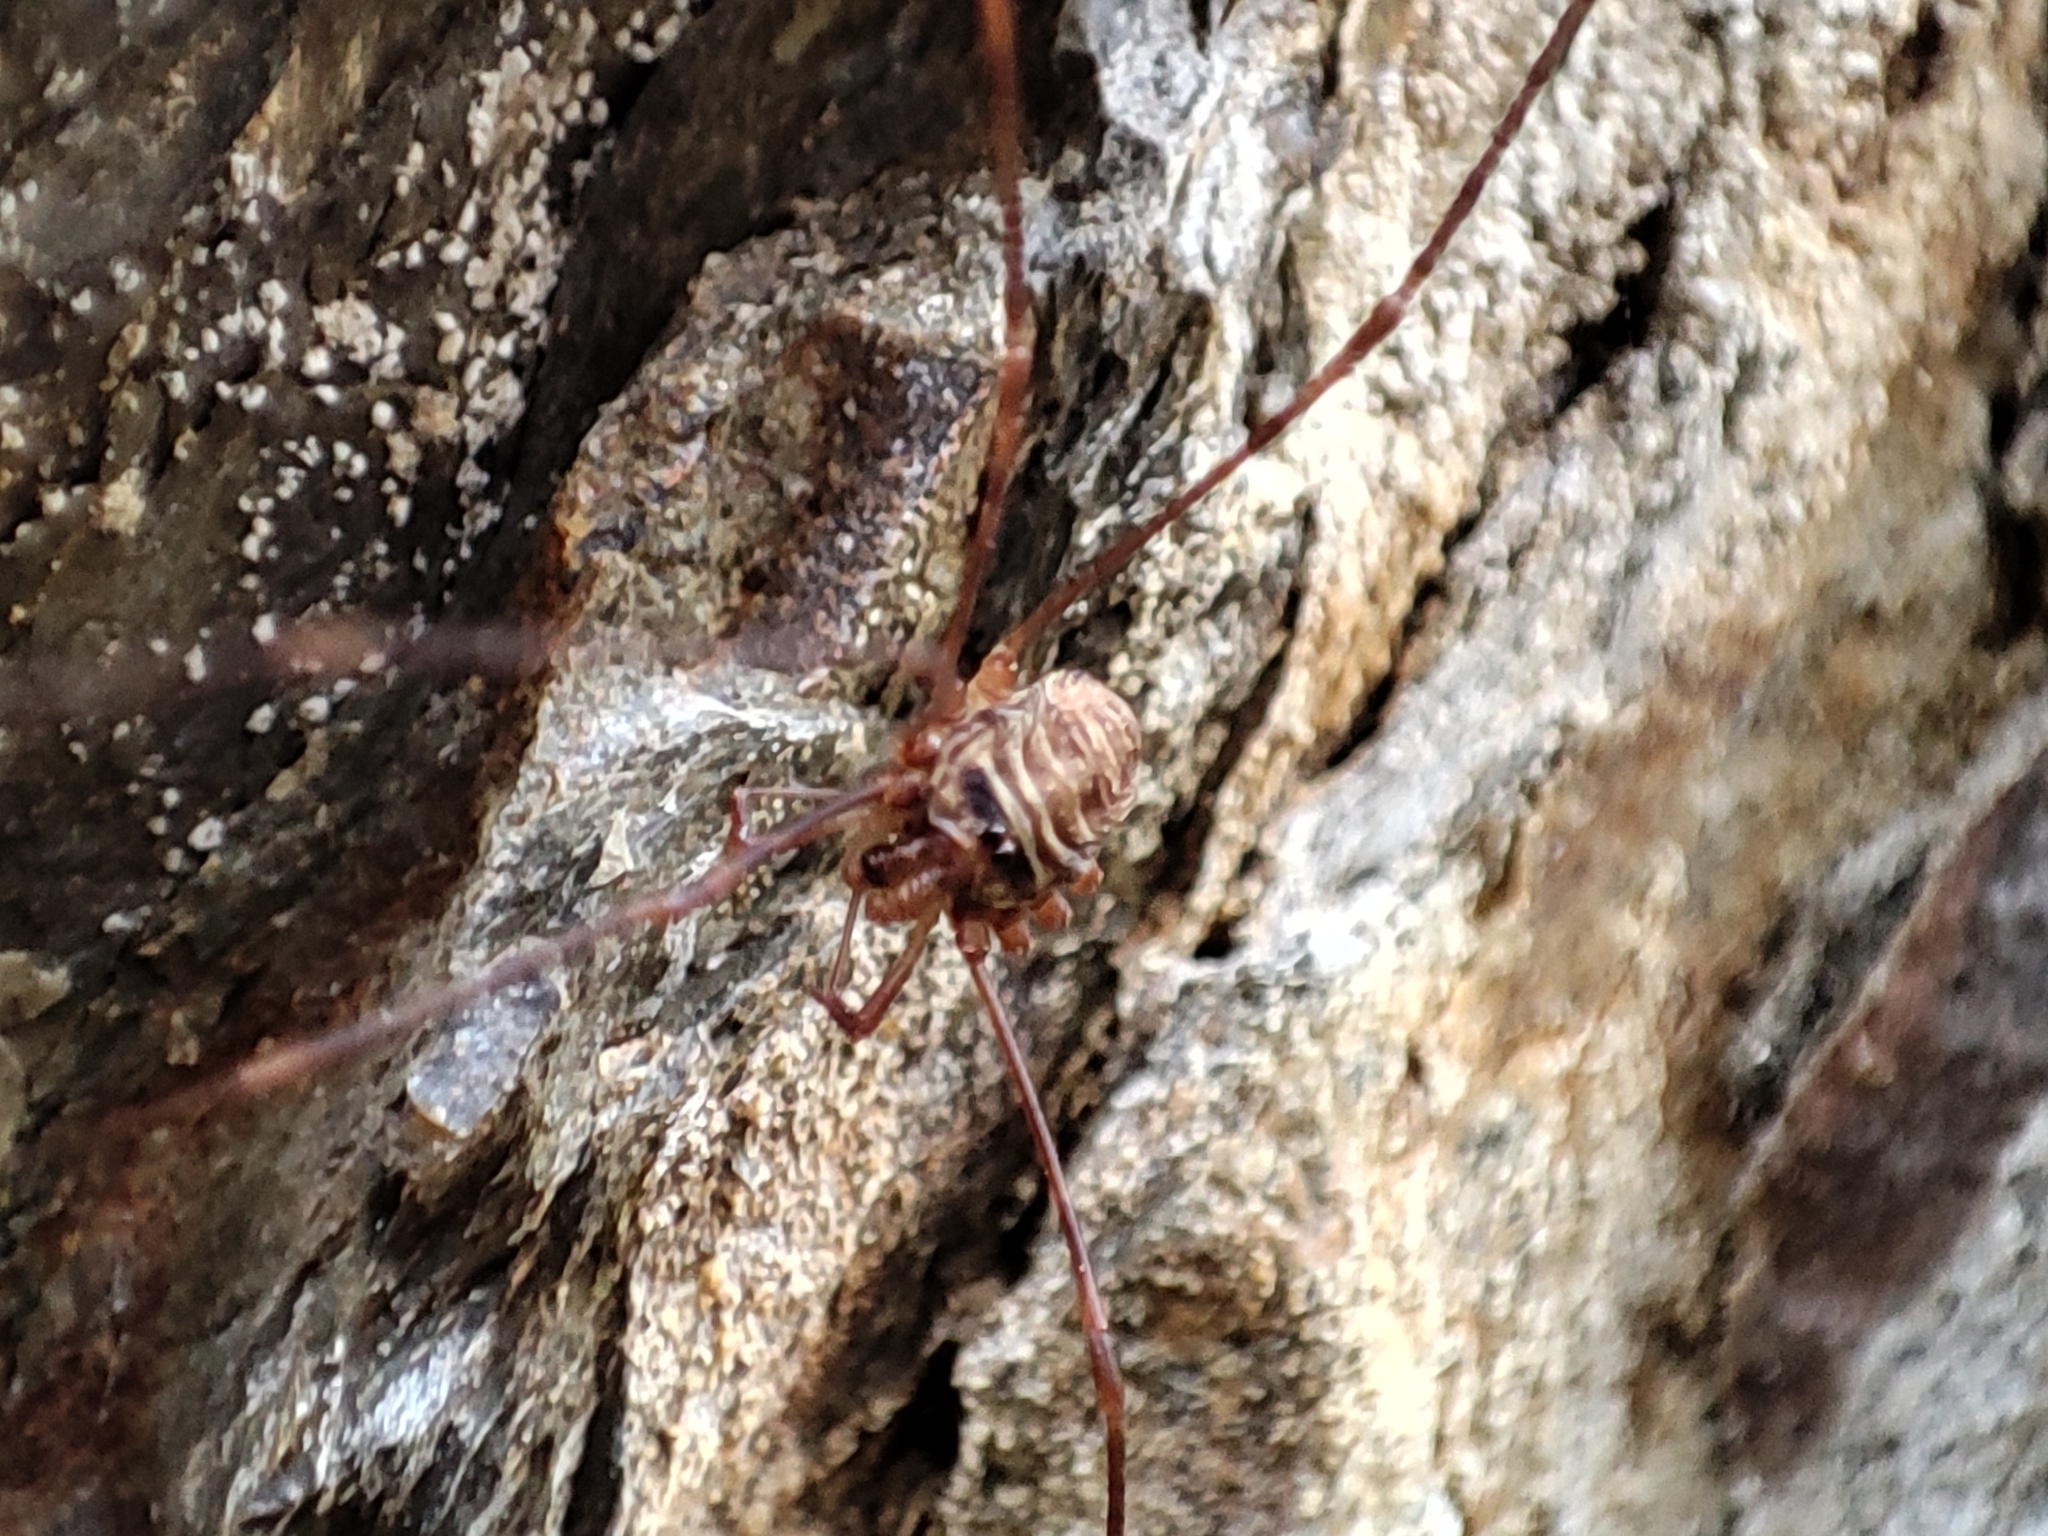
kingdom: Animalia
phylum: Arthropoda
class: Arachnida
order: Opiliones
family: Phalangiidae
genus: Dicranopalpus
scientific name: Dicranopalpus ramosus
